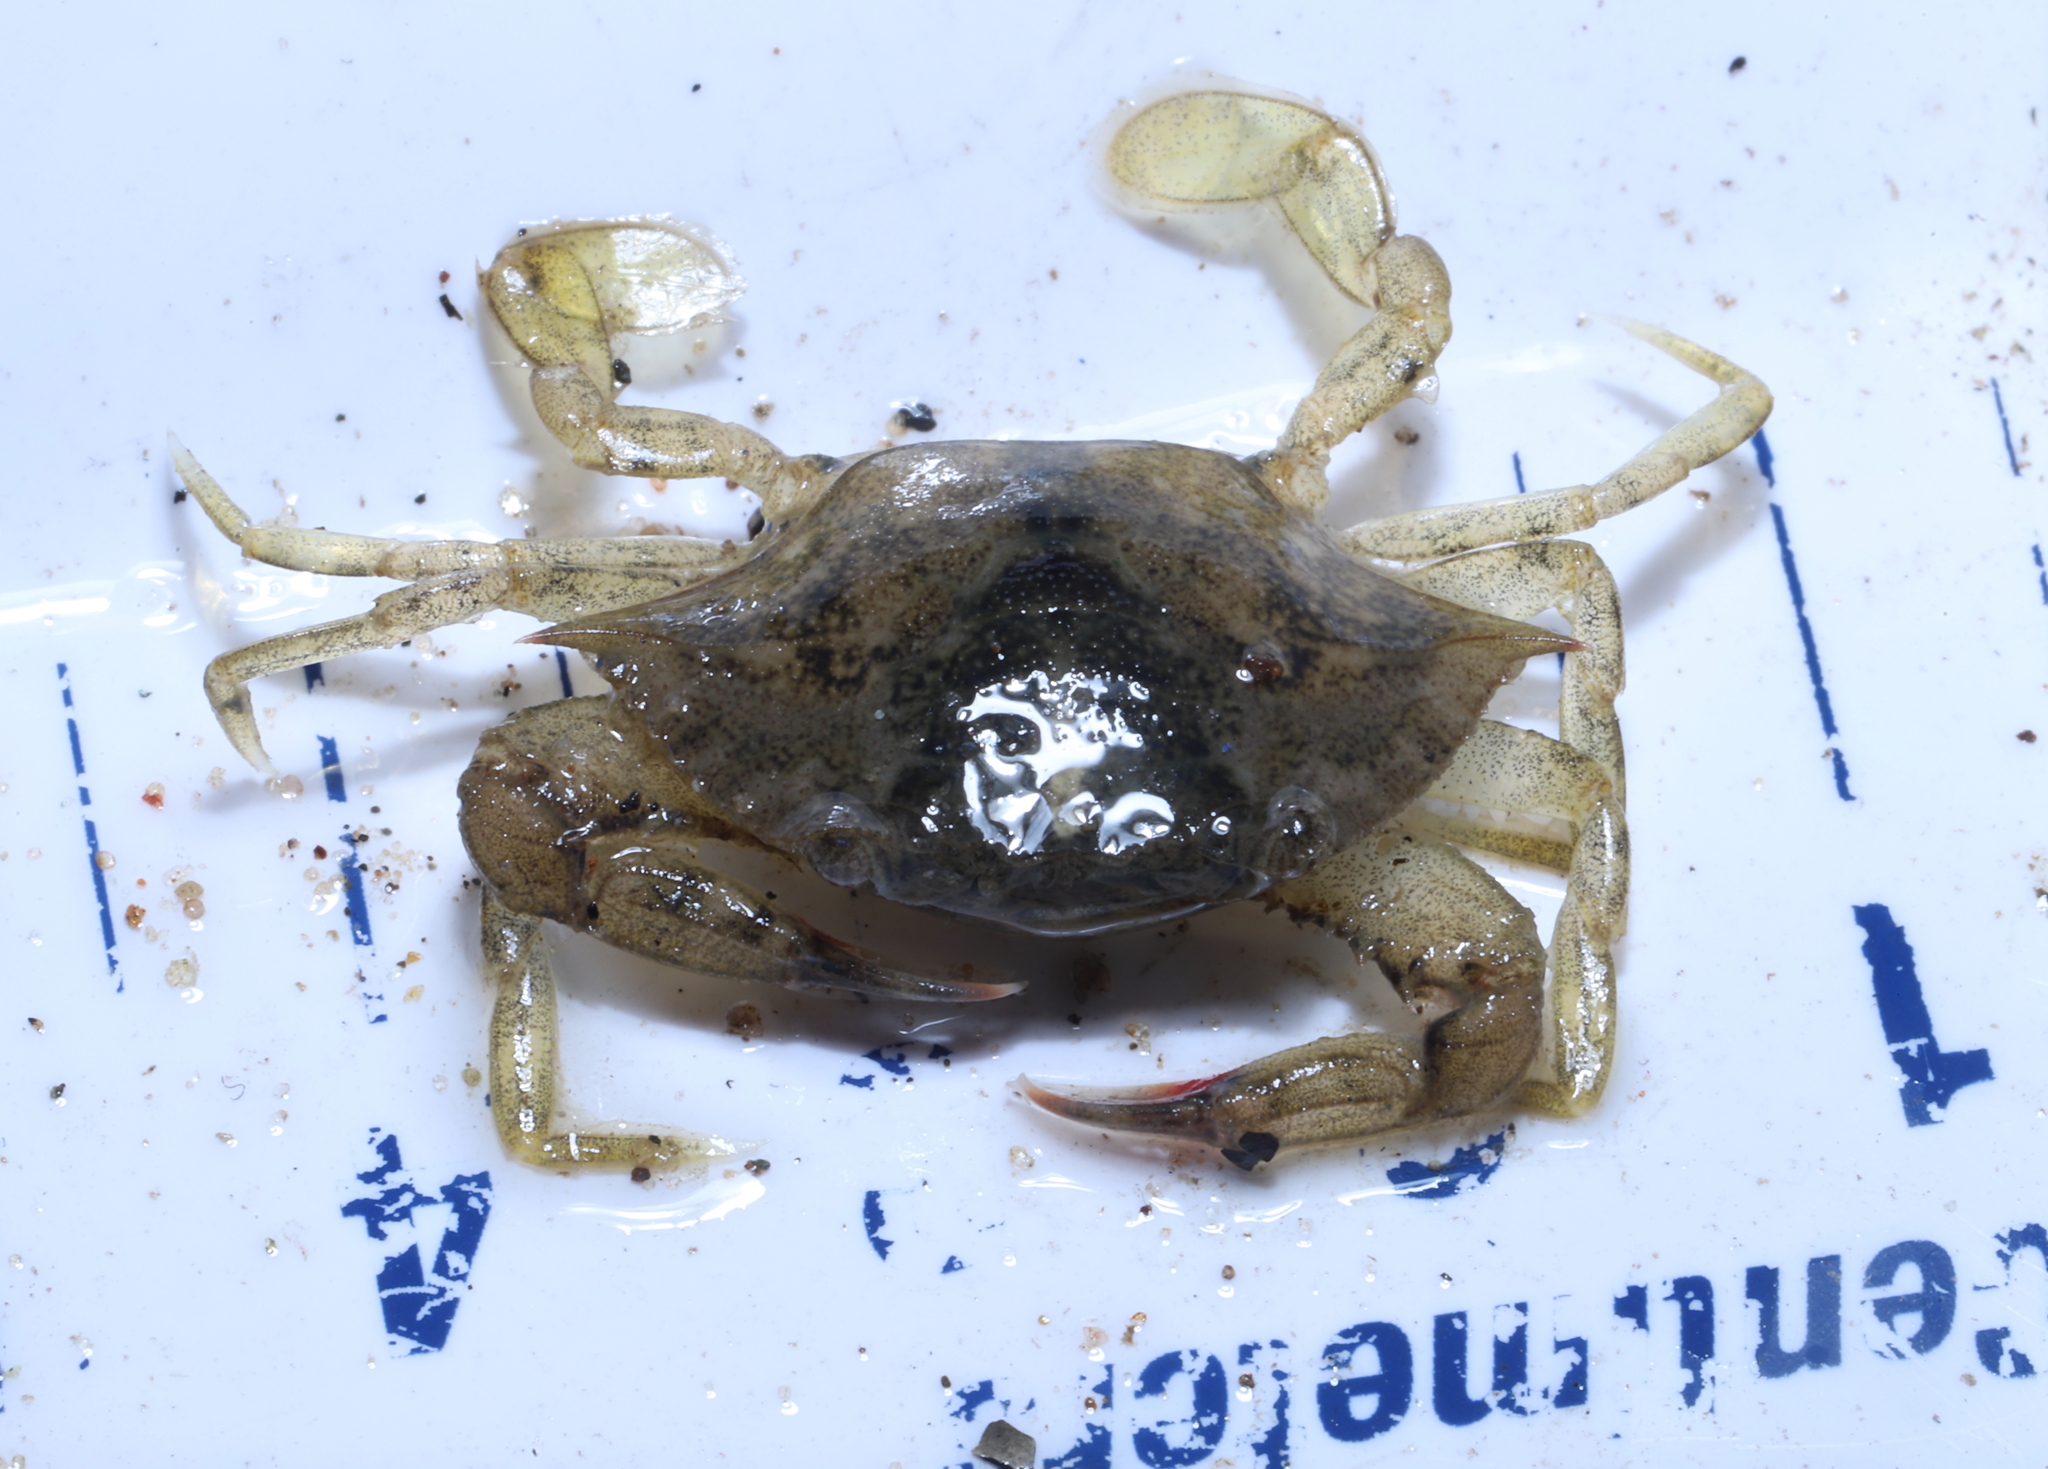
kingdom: Animalia
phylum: Arthropoda
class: Malacostraca
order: Decapoda
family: Portunidae
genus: Callinectes
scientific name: Callinectes sapidus
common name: Blue crab
